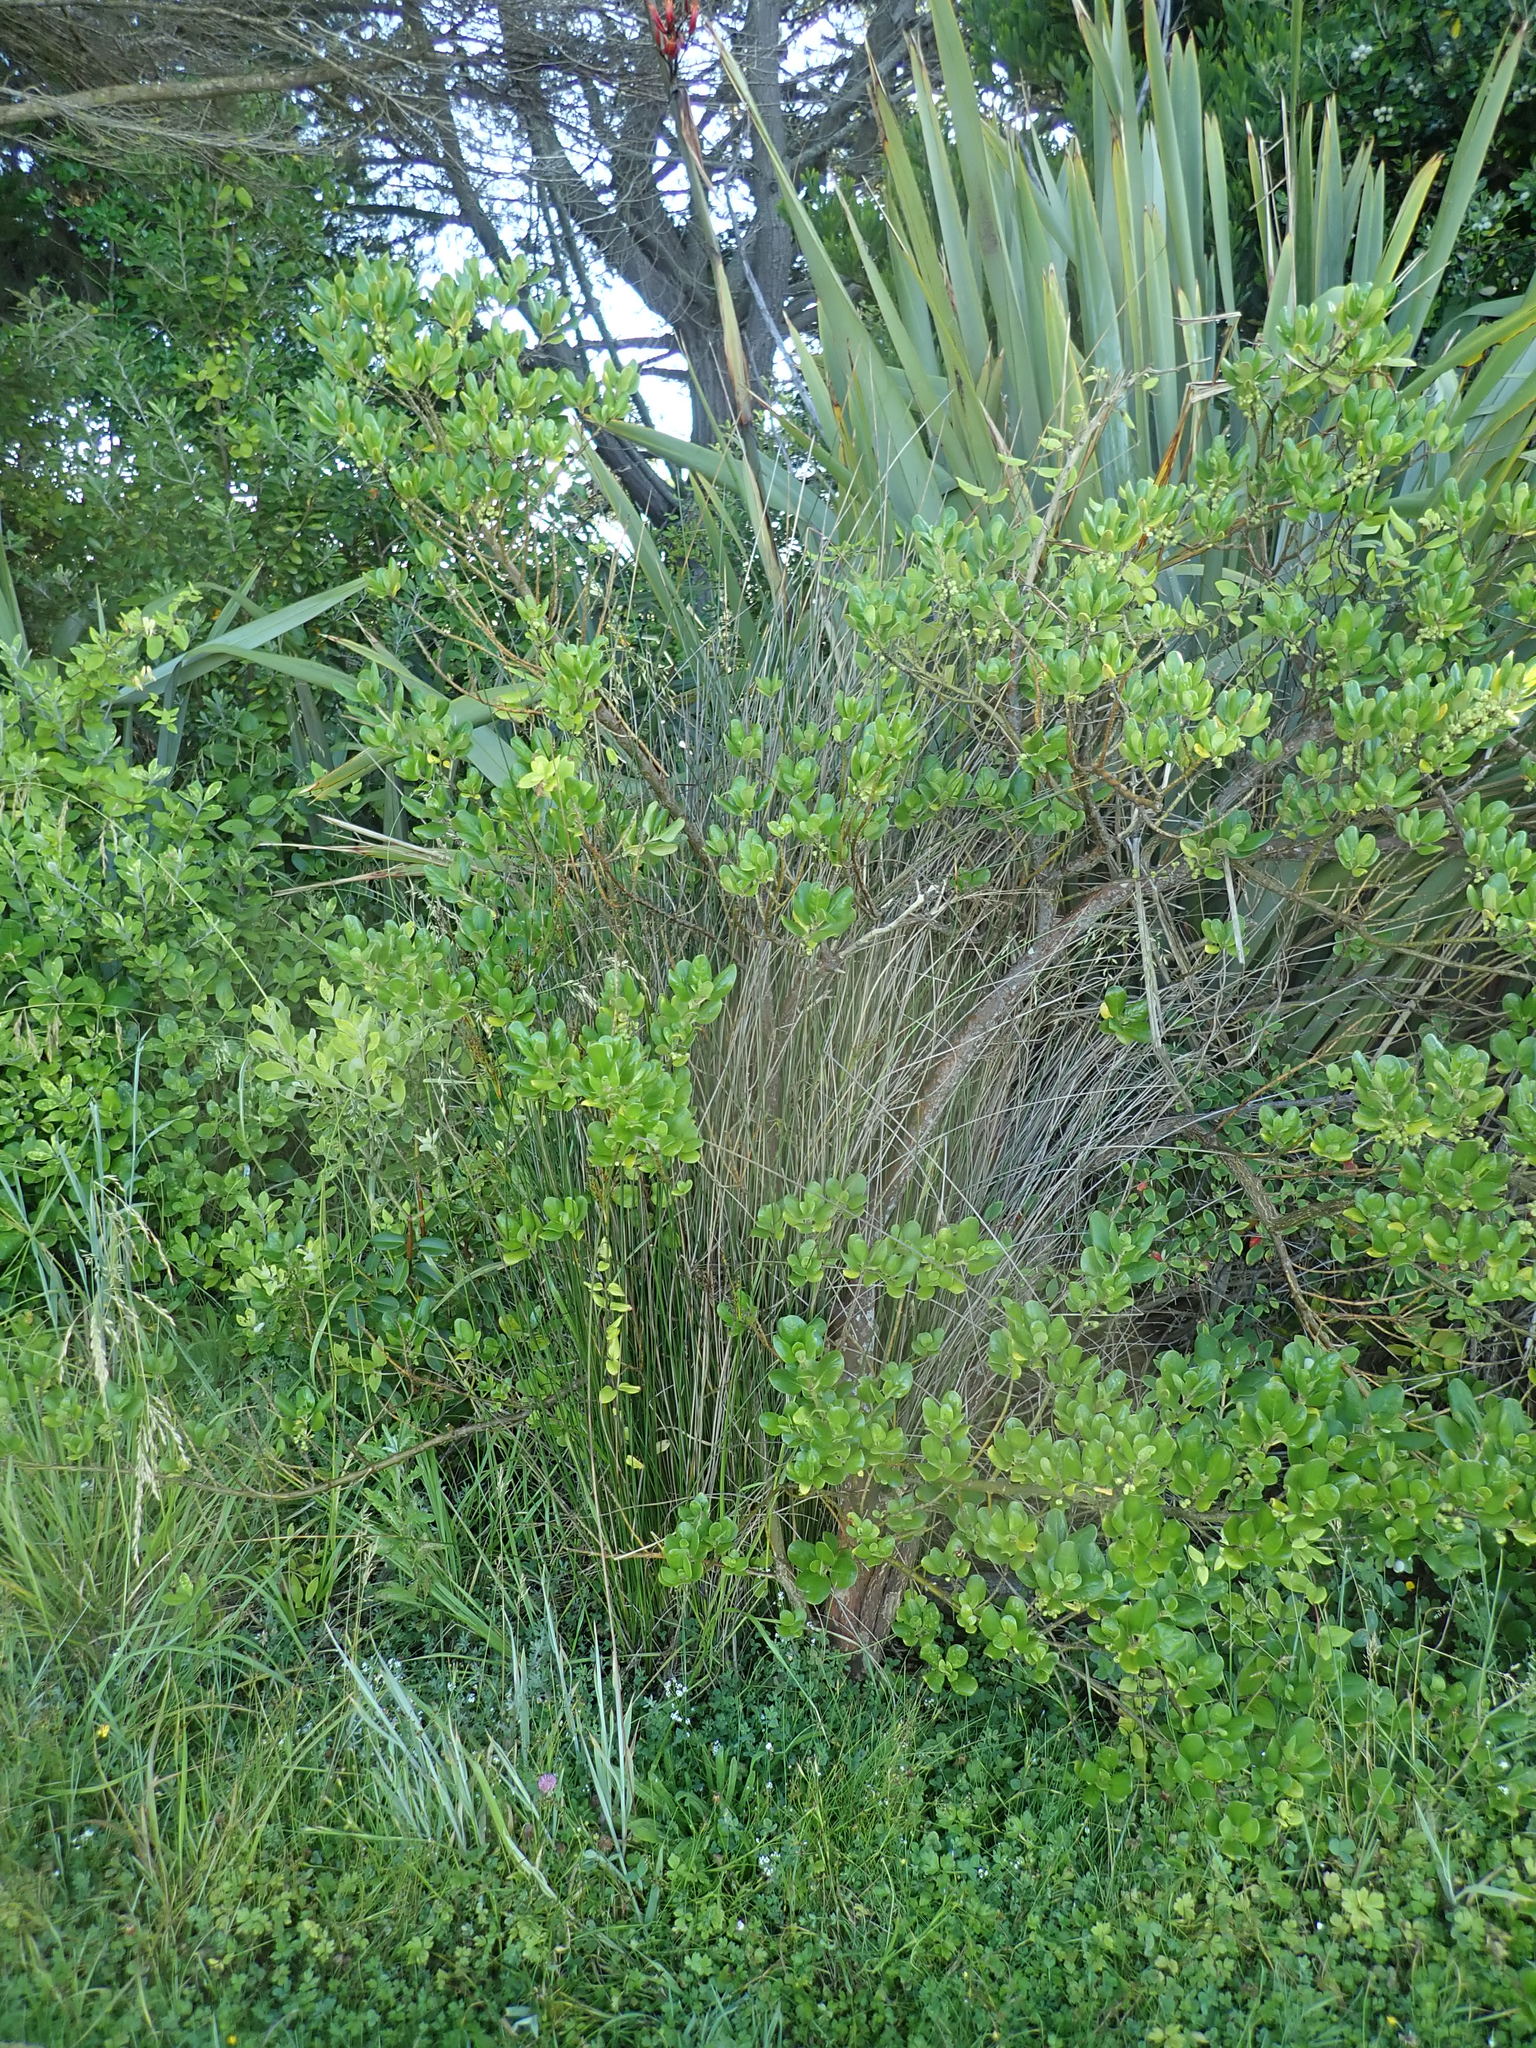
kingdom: Plantae
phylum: Tracheophyta
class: Liliopsida
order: Poales
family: Juncaceae
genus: Juncus
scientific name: Juncus kraussii
